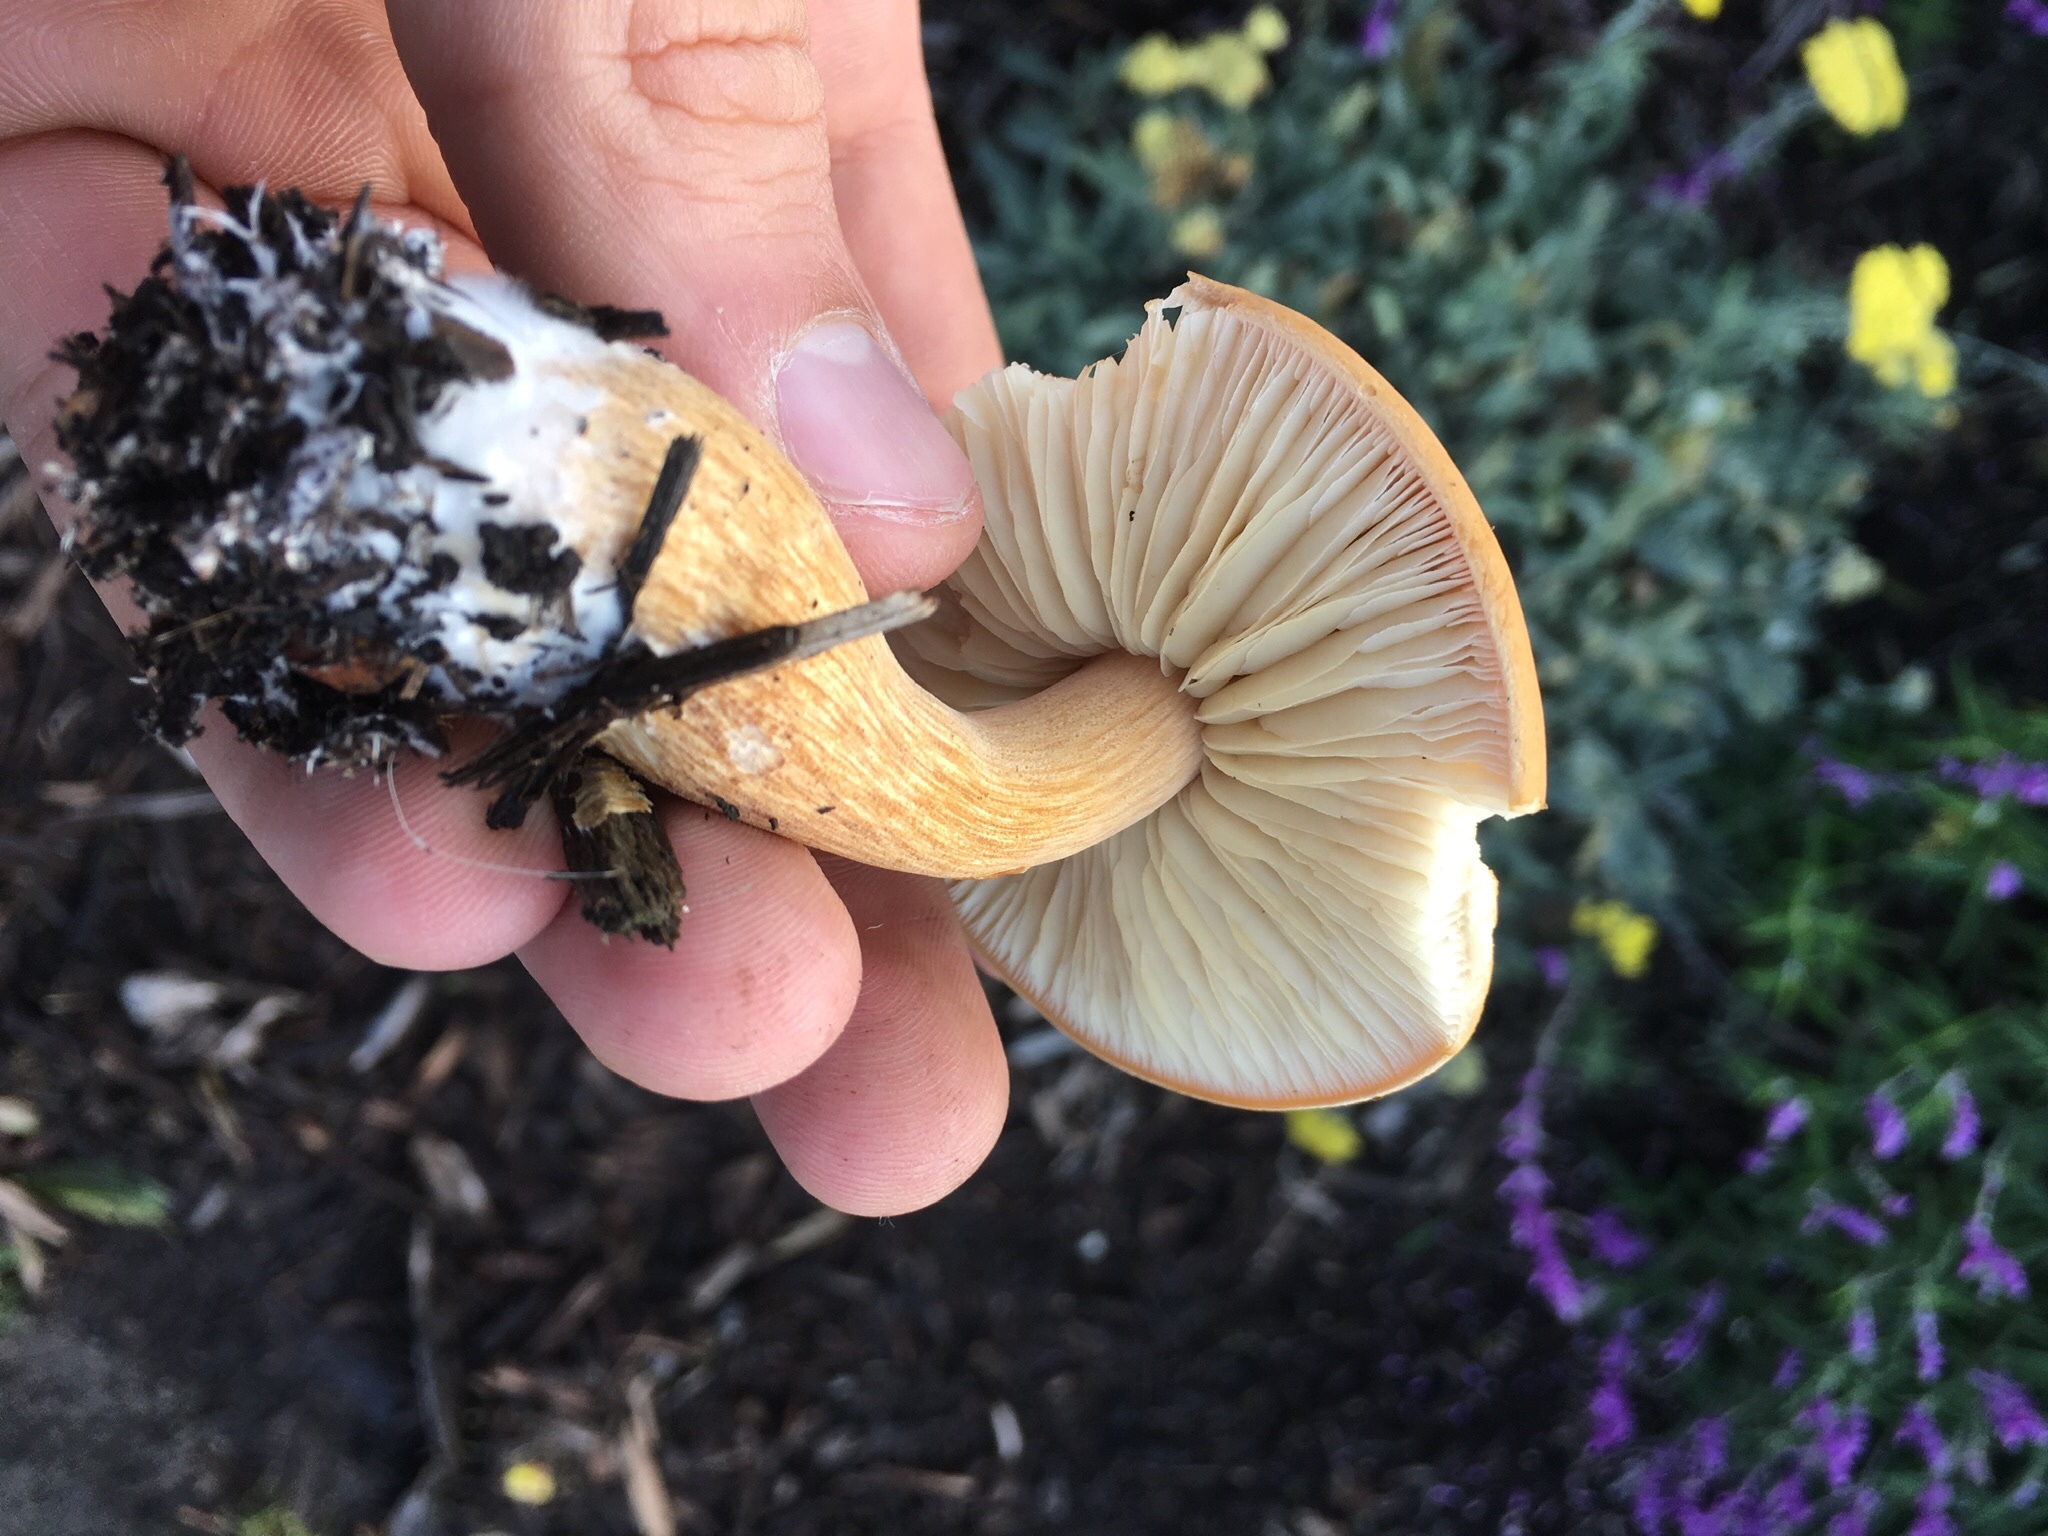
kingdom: Fungi
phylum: Basidiomycota
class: Agaricomycetes
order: Agaricales
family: Strophariaceae
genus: Agrocybe
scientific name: Agrocybe putaminum
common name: Mulch fieldcap
